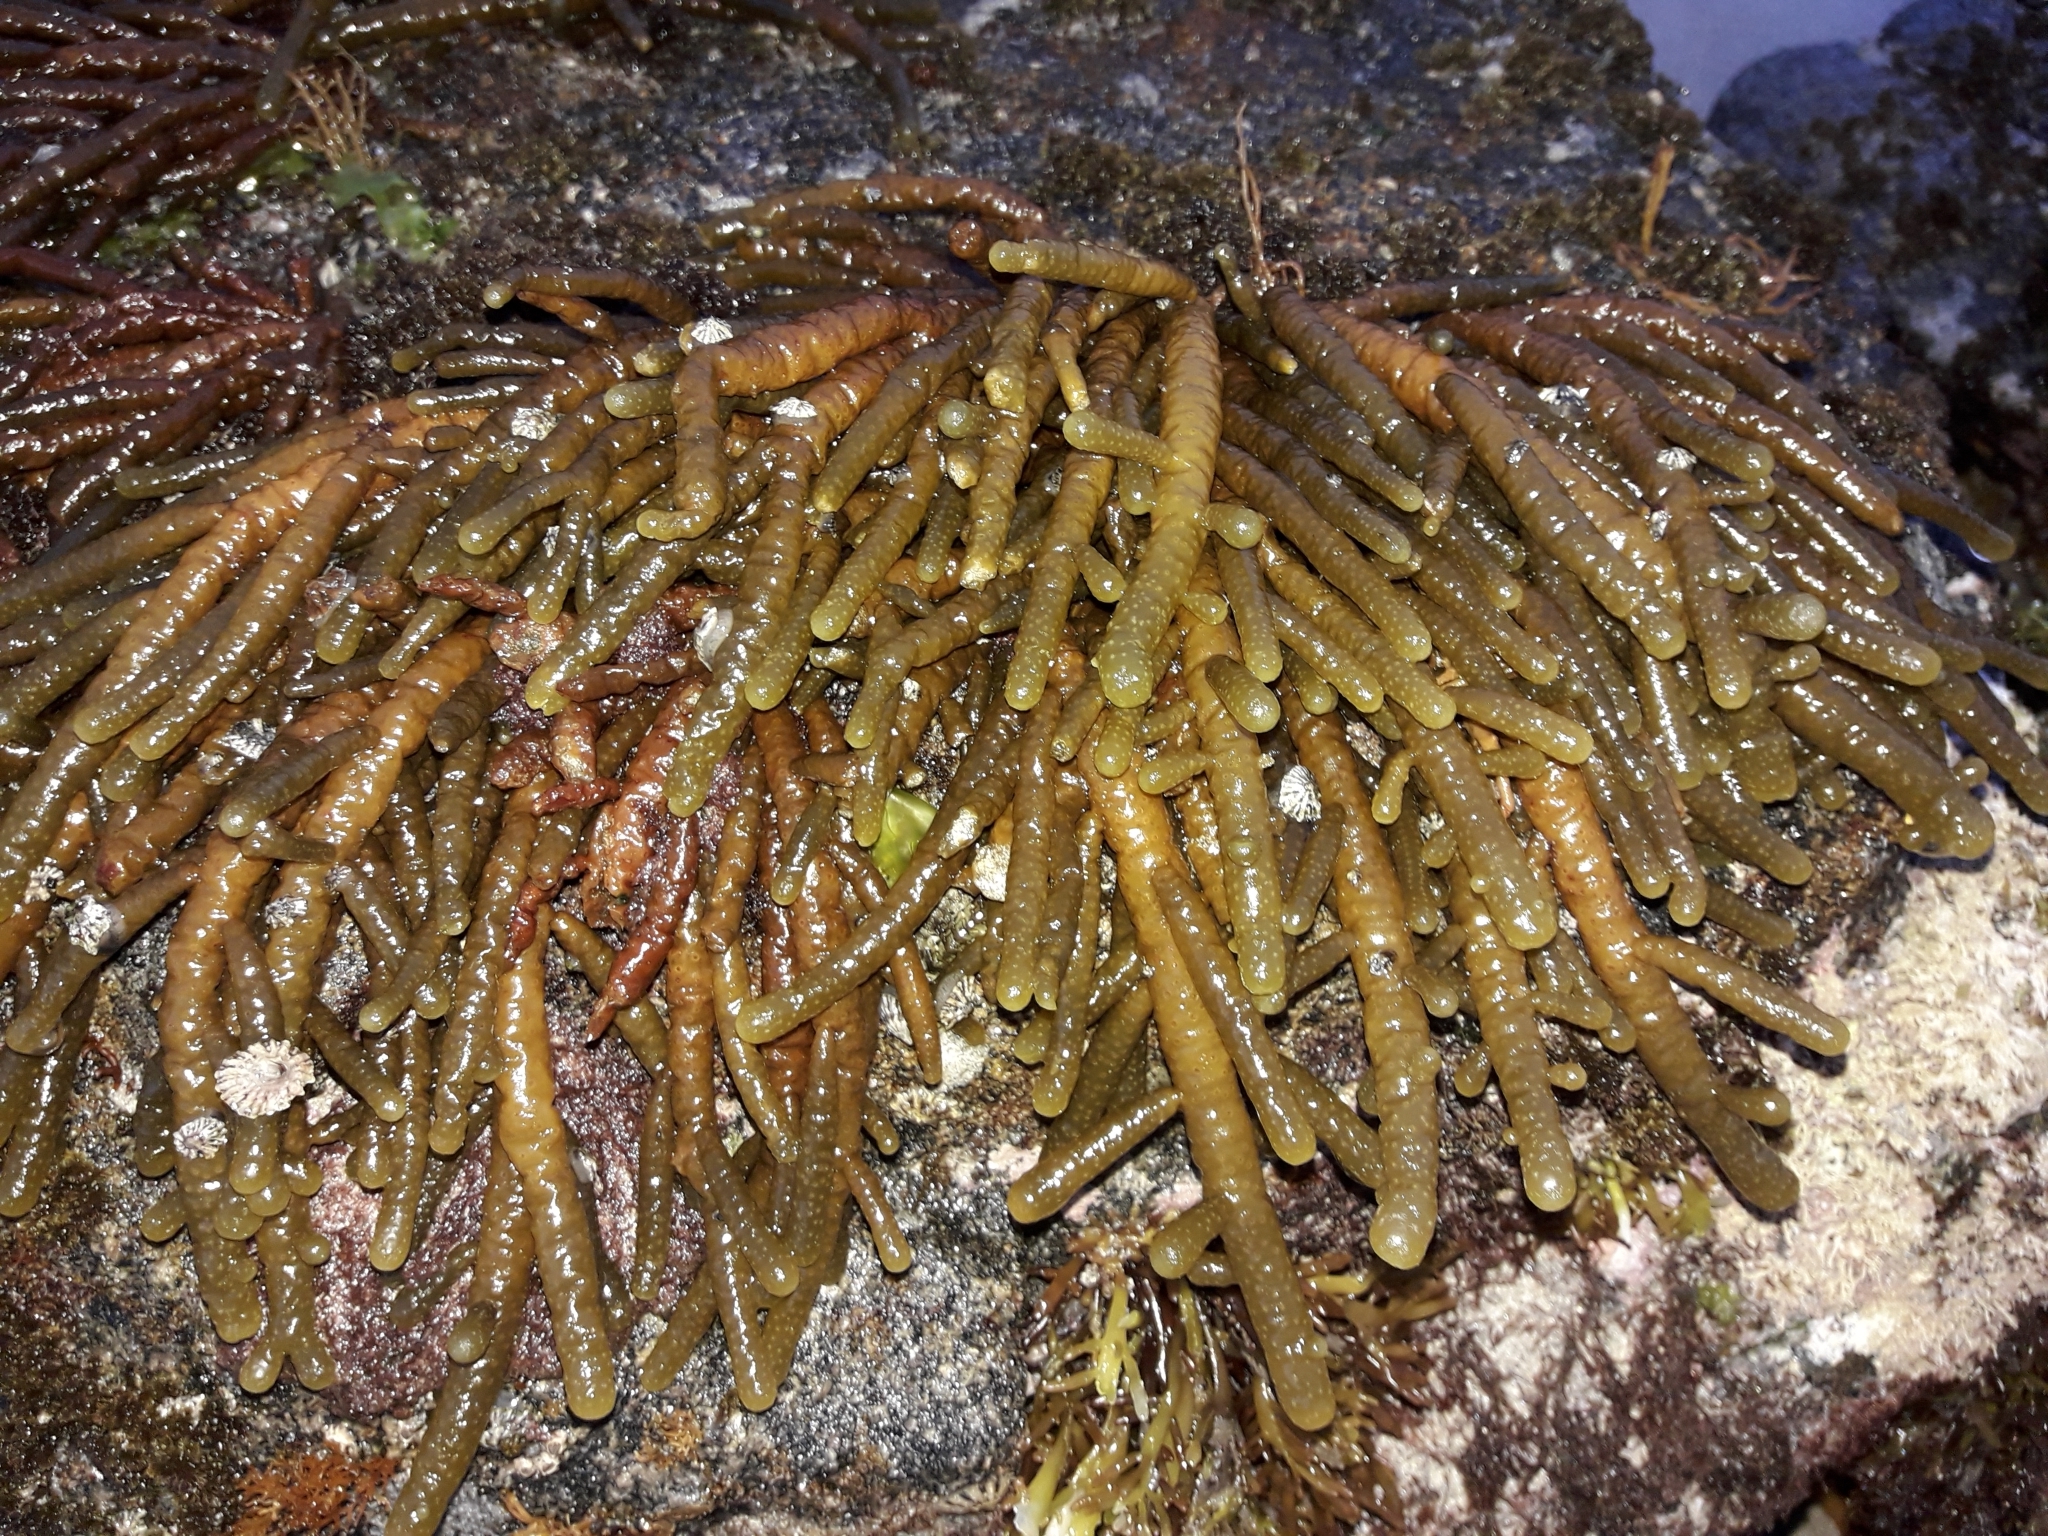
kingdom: Chromista
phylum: Ochrophyta
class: Phaeophyceae
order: Scytothamnales
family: Splachnidiaceae
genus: Splachnidium
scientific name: Splachnidium rugosum
